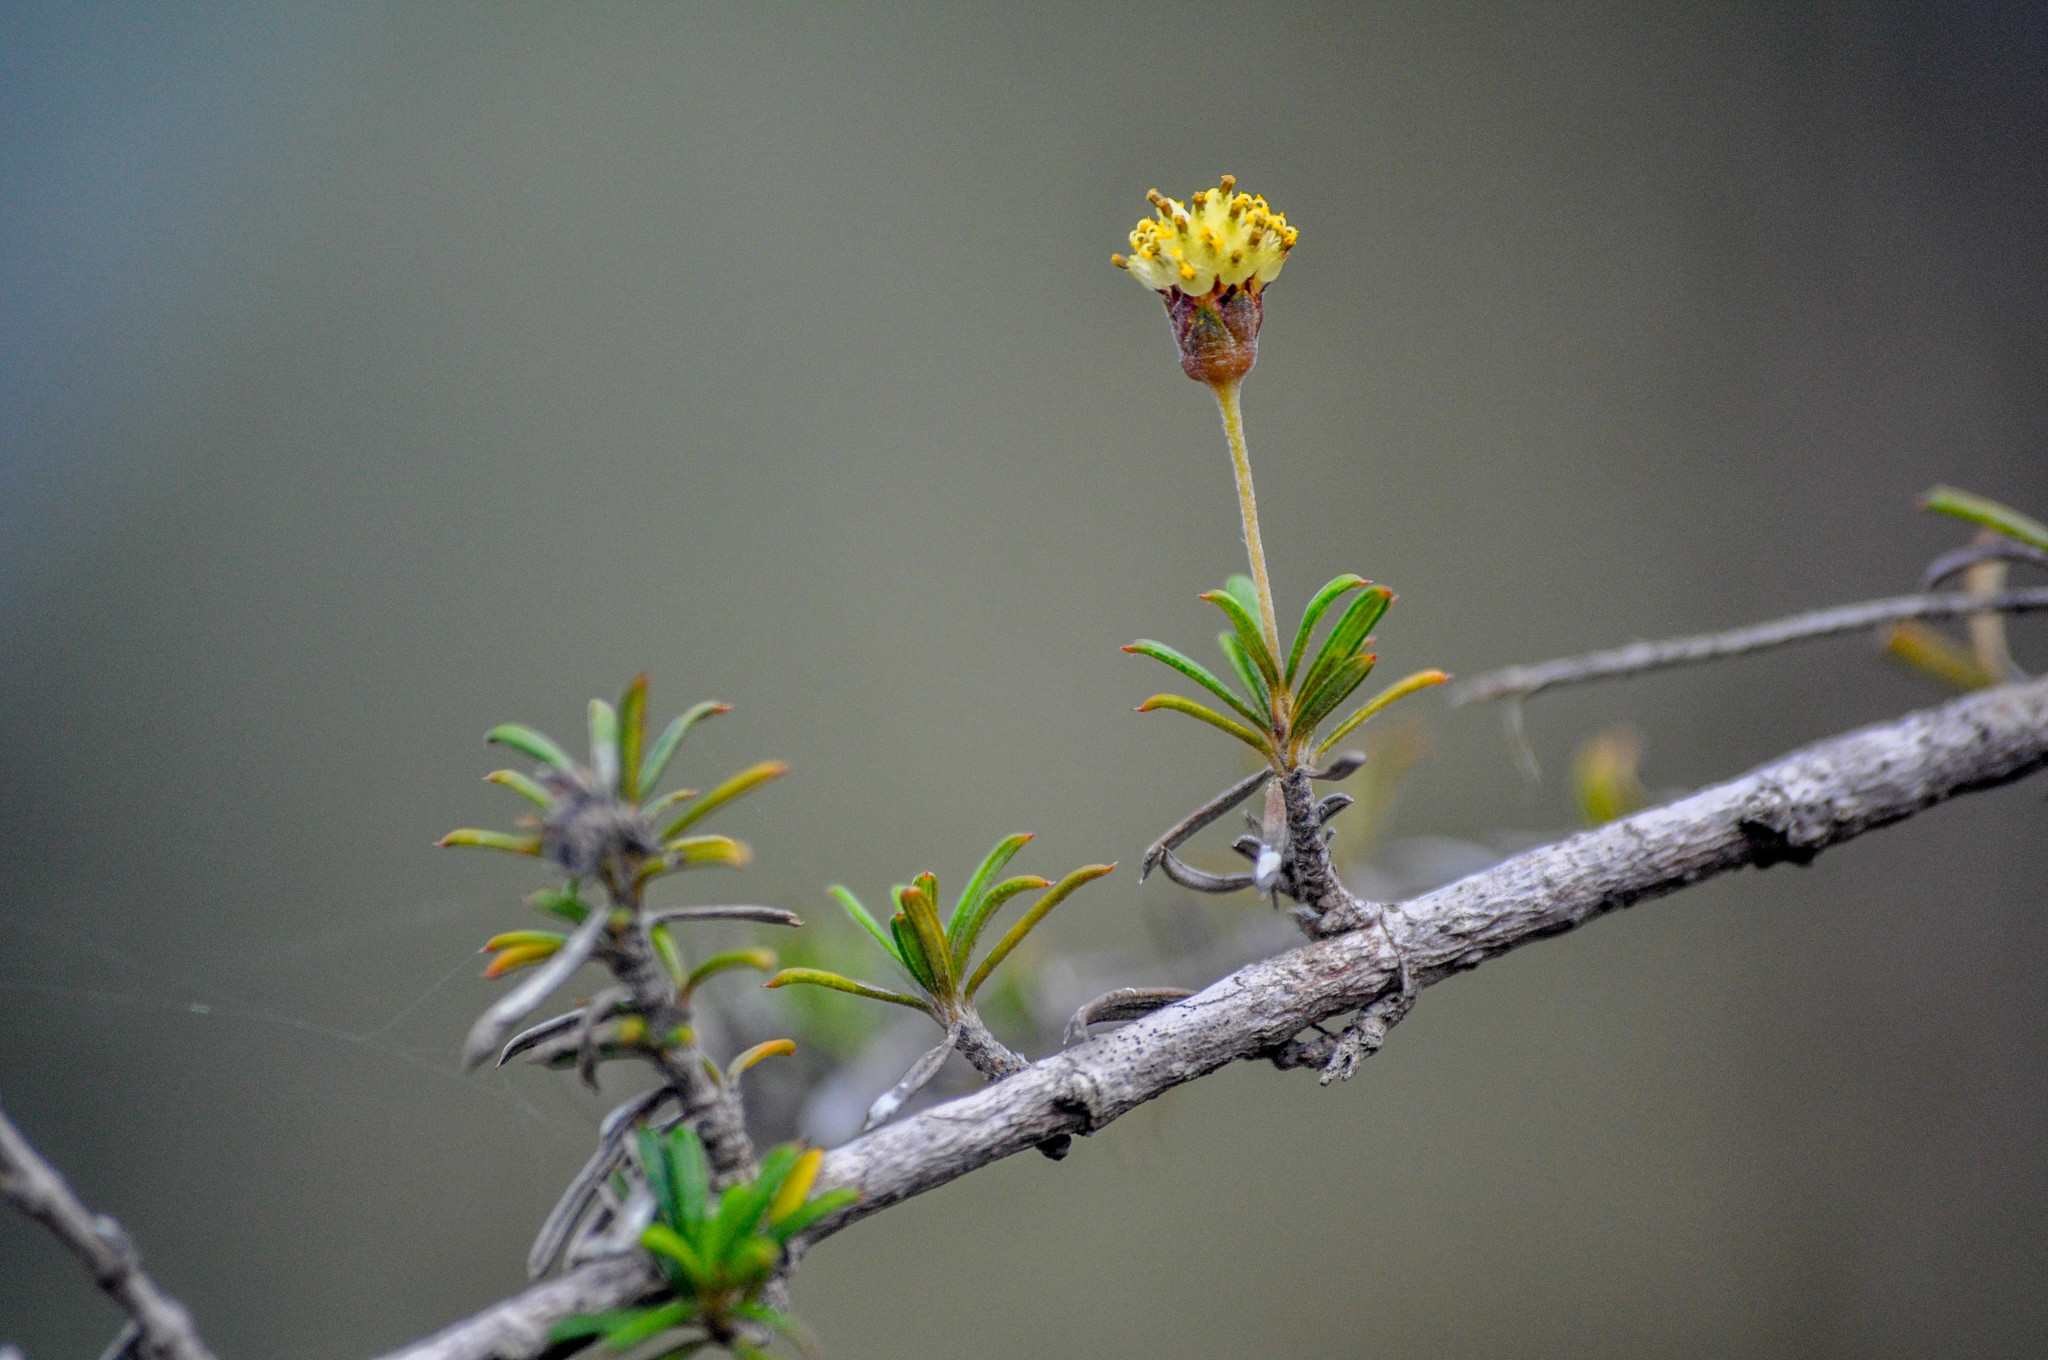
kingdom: Plantae
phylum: Tracheophyta
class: Magnoliopsida
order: Asterales
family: Asteraceae
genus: Trigonopterum
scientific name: Trigonopterum laricifolium
